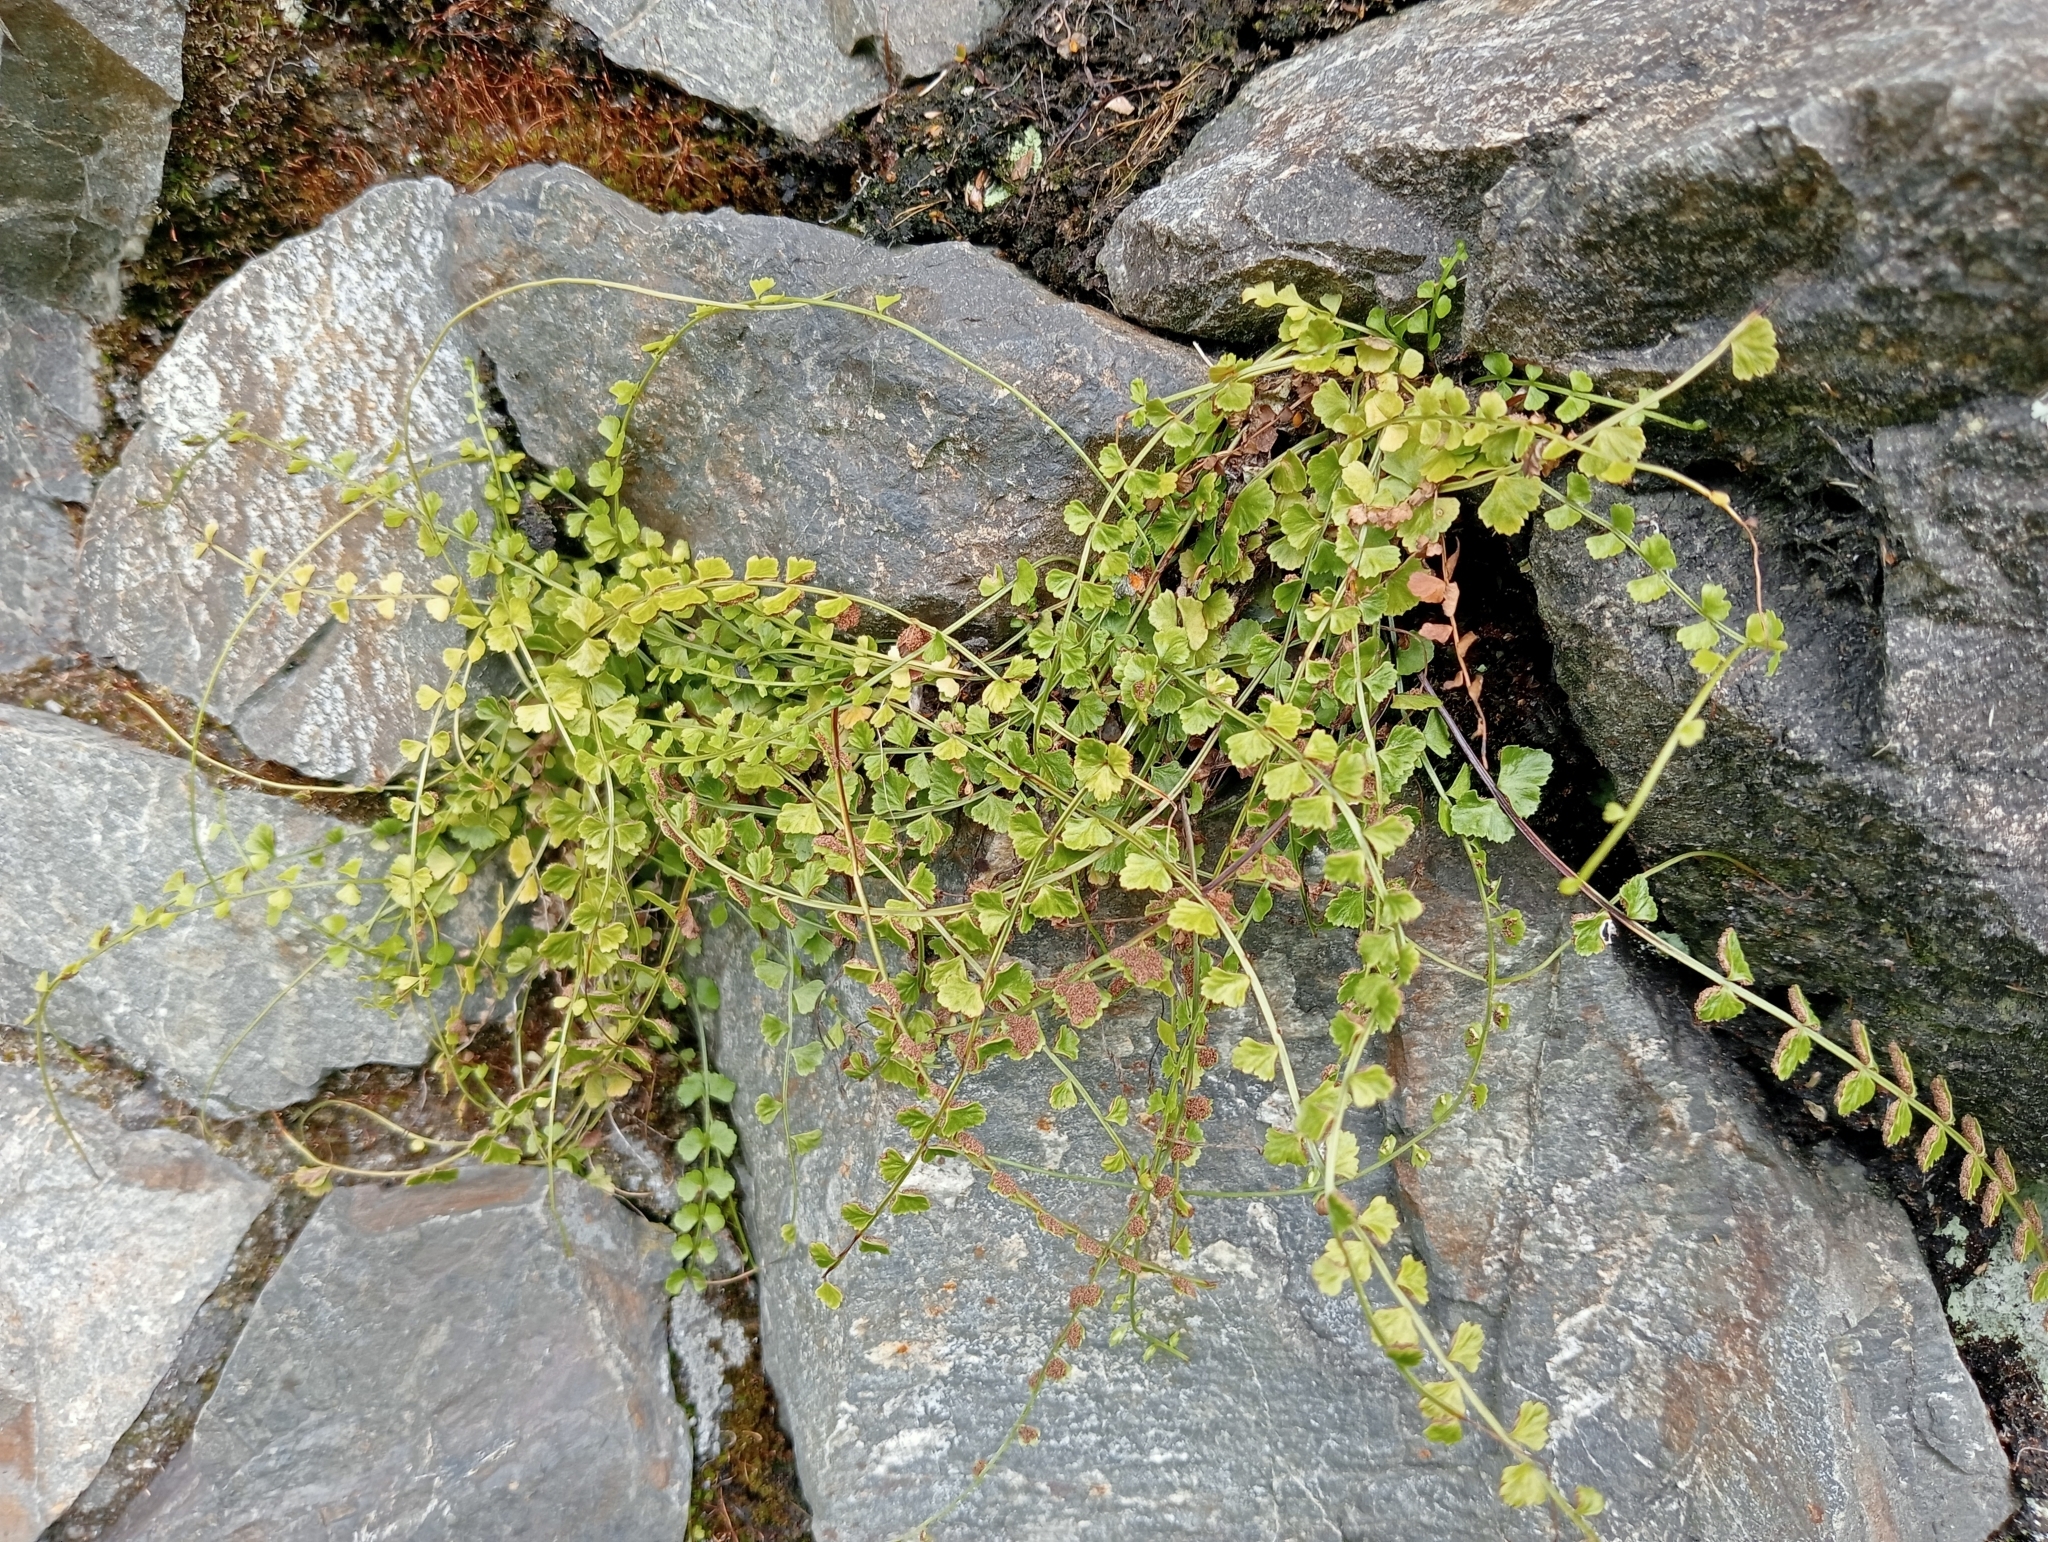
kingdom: Plantae
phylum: Tracheophyta
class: Polypodiopsida
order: Polypodiales
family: Aspleniaceae
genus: Asplenium
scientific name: Asplenium flabellifolium
